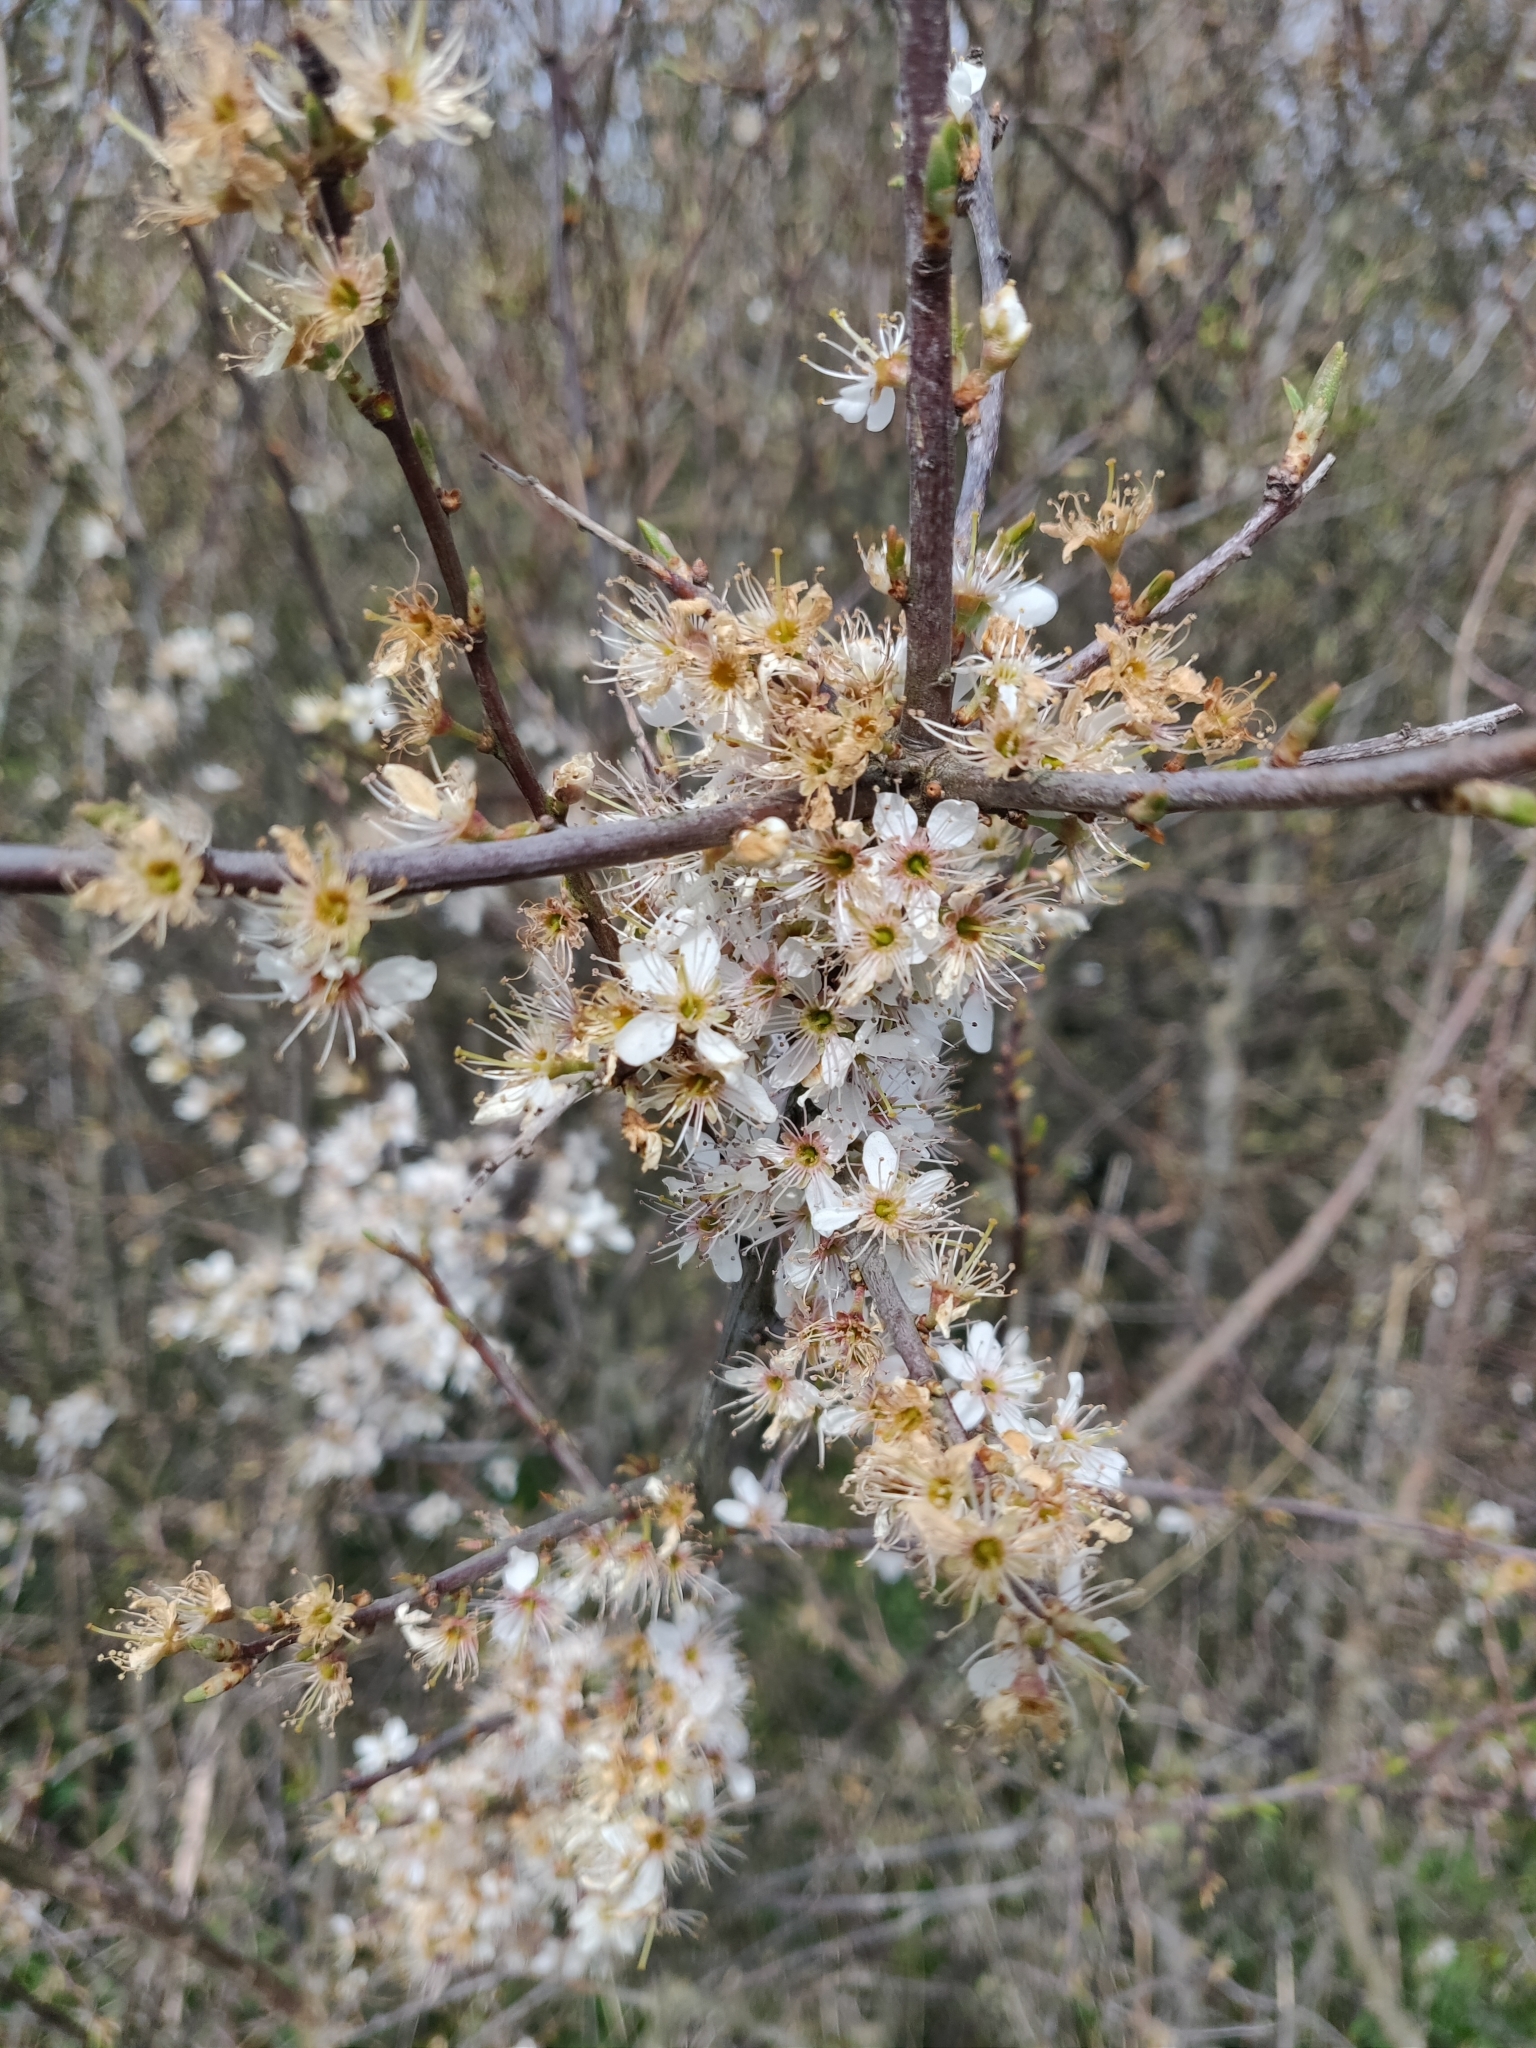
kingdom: Plantae
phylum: Tracheophyta
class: Magnoliopsida
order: Rosales
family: Rosaceae
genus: Prunus
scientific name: Prunus spinosa
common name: Blackthorn
